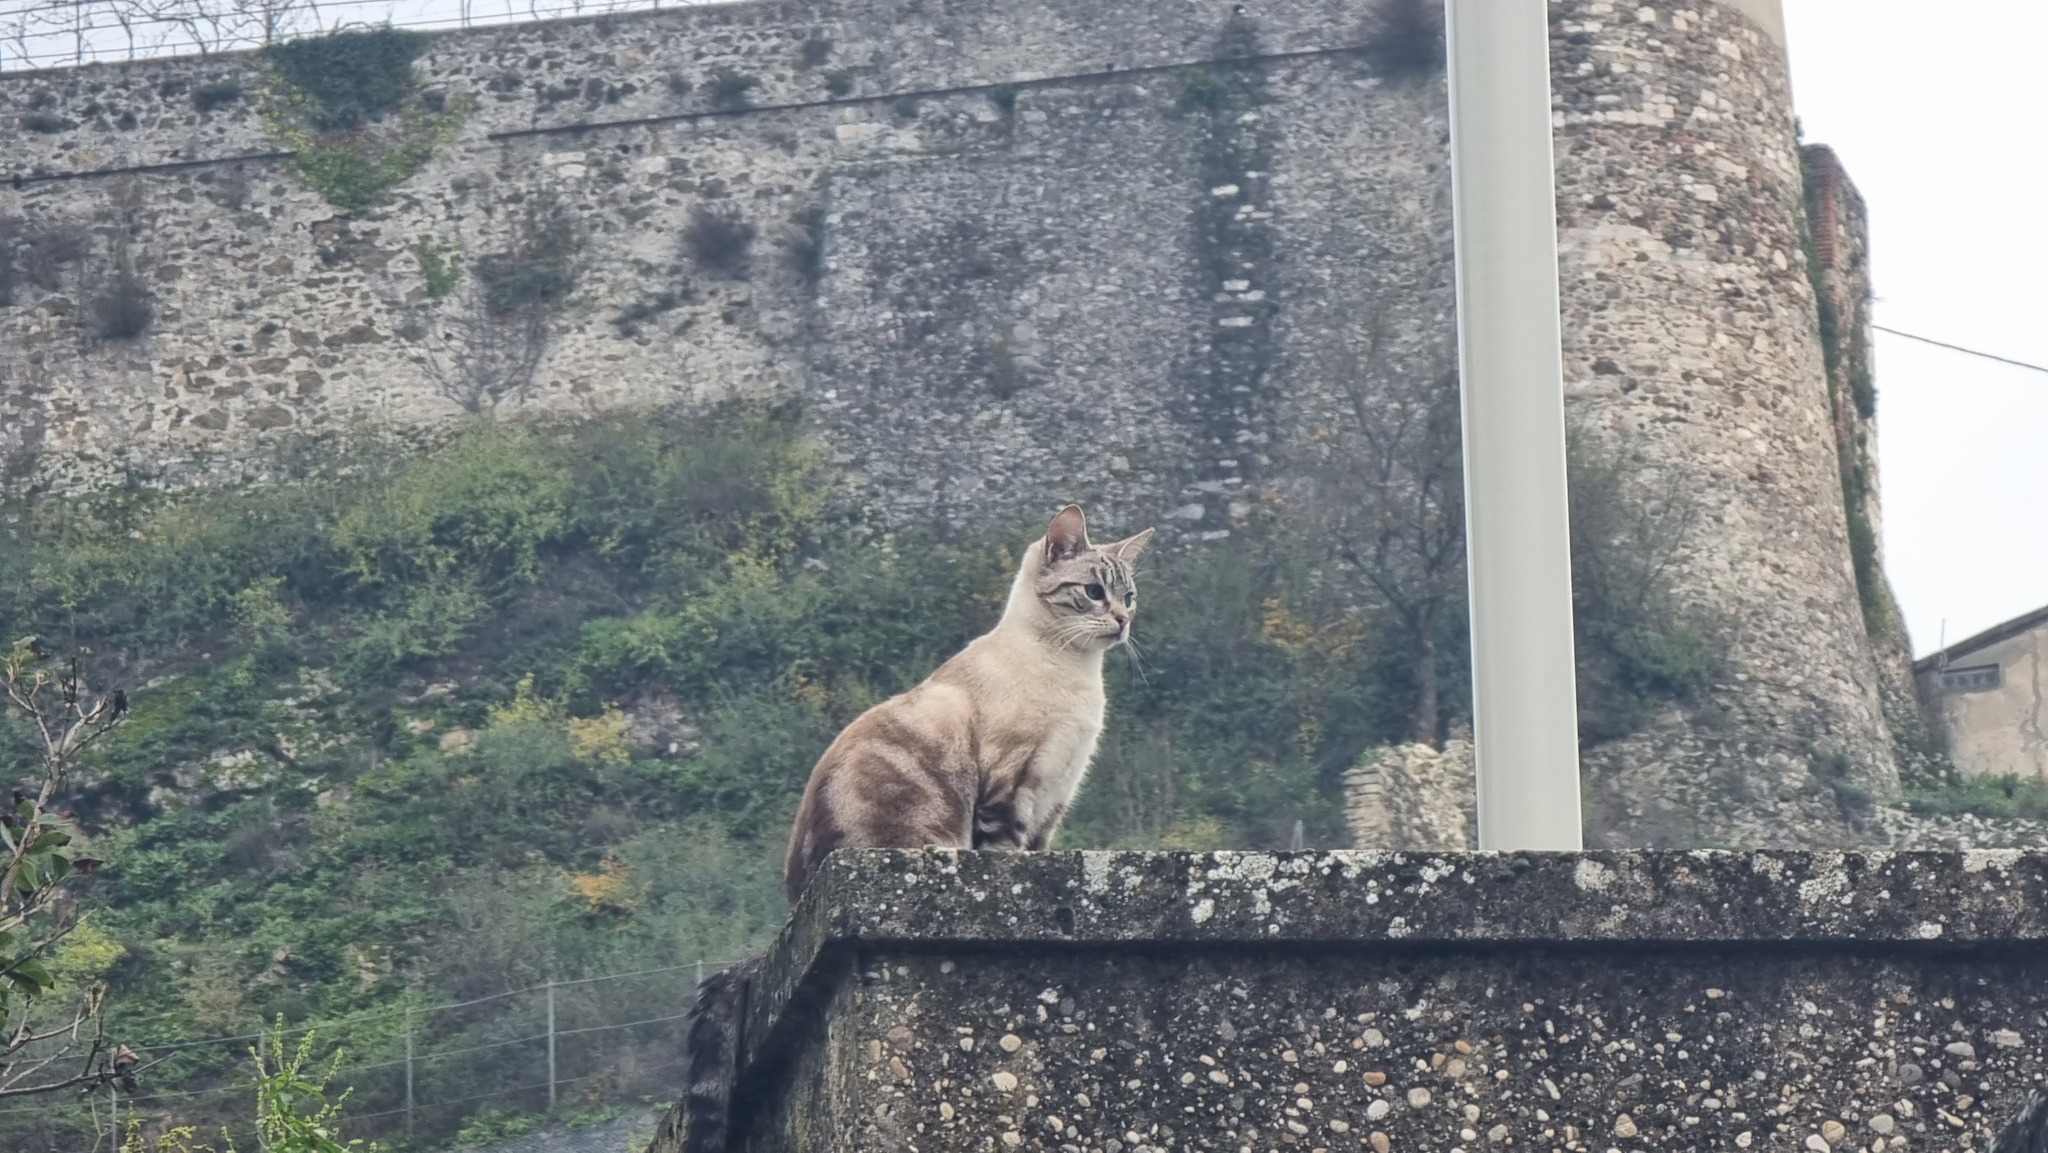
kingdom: Animalia
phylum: Chordata
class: Mammalia
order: Carnivora
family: Felidae
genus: Felis
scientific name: Felis catus
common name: Domestic cat
